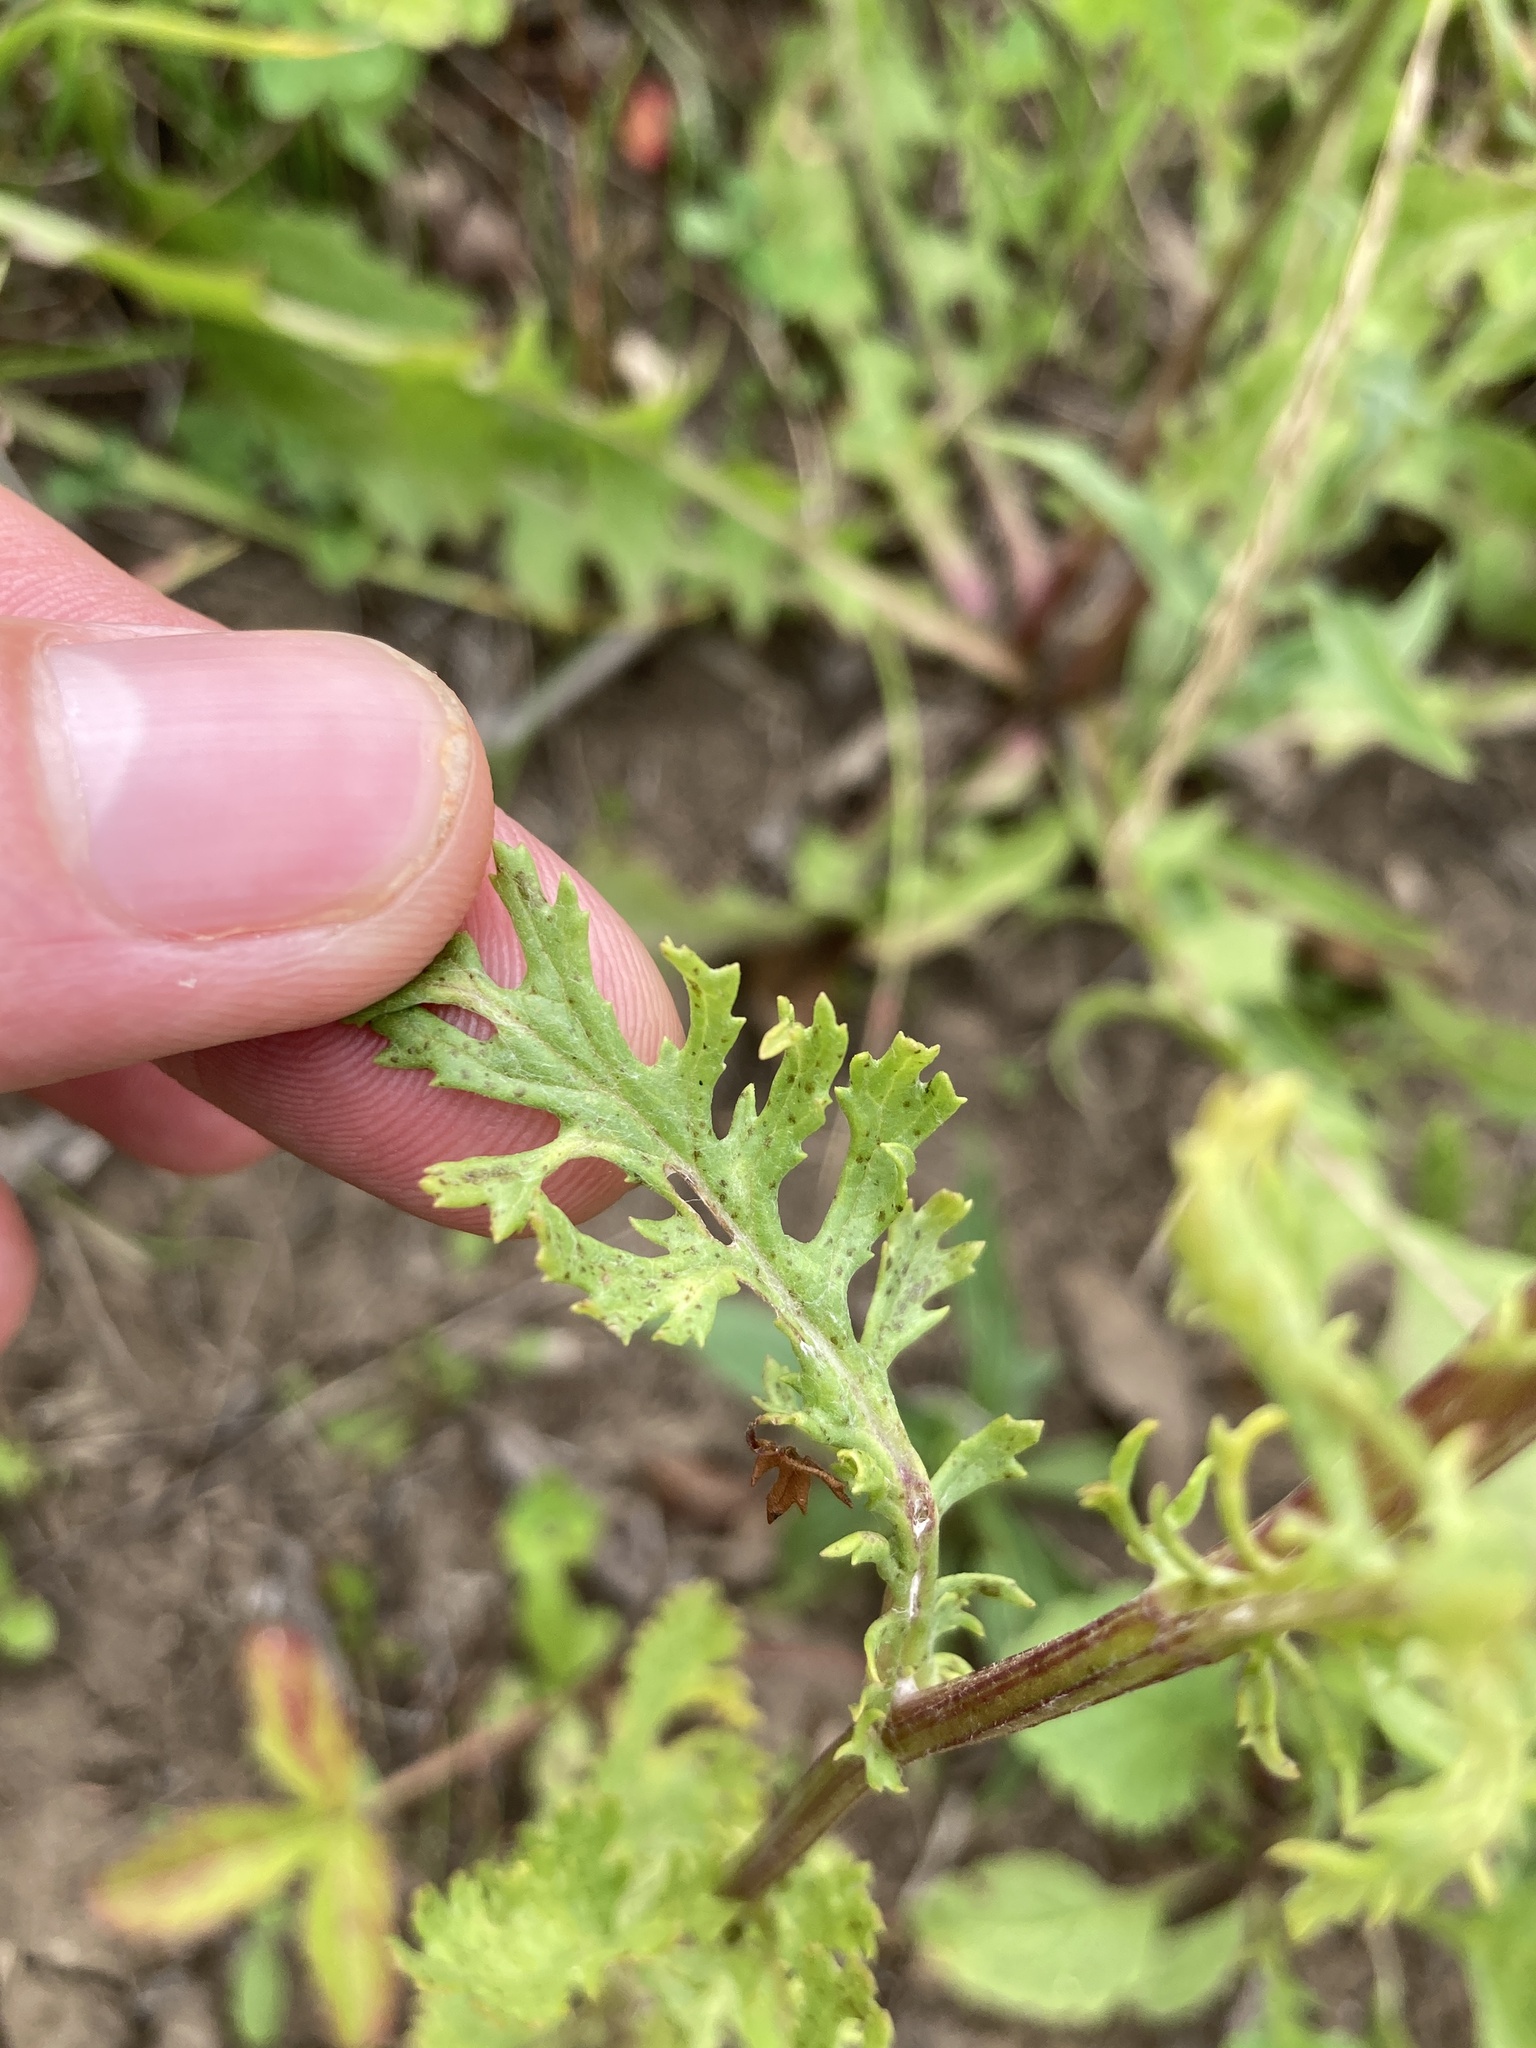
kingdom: Plantae
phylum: Tracheophyta
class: Magnoliopsida
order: Asterales
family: Asteraceae
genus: Jacobaea
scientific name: Jacobaea vulgaris
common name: Stinking willie
